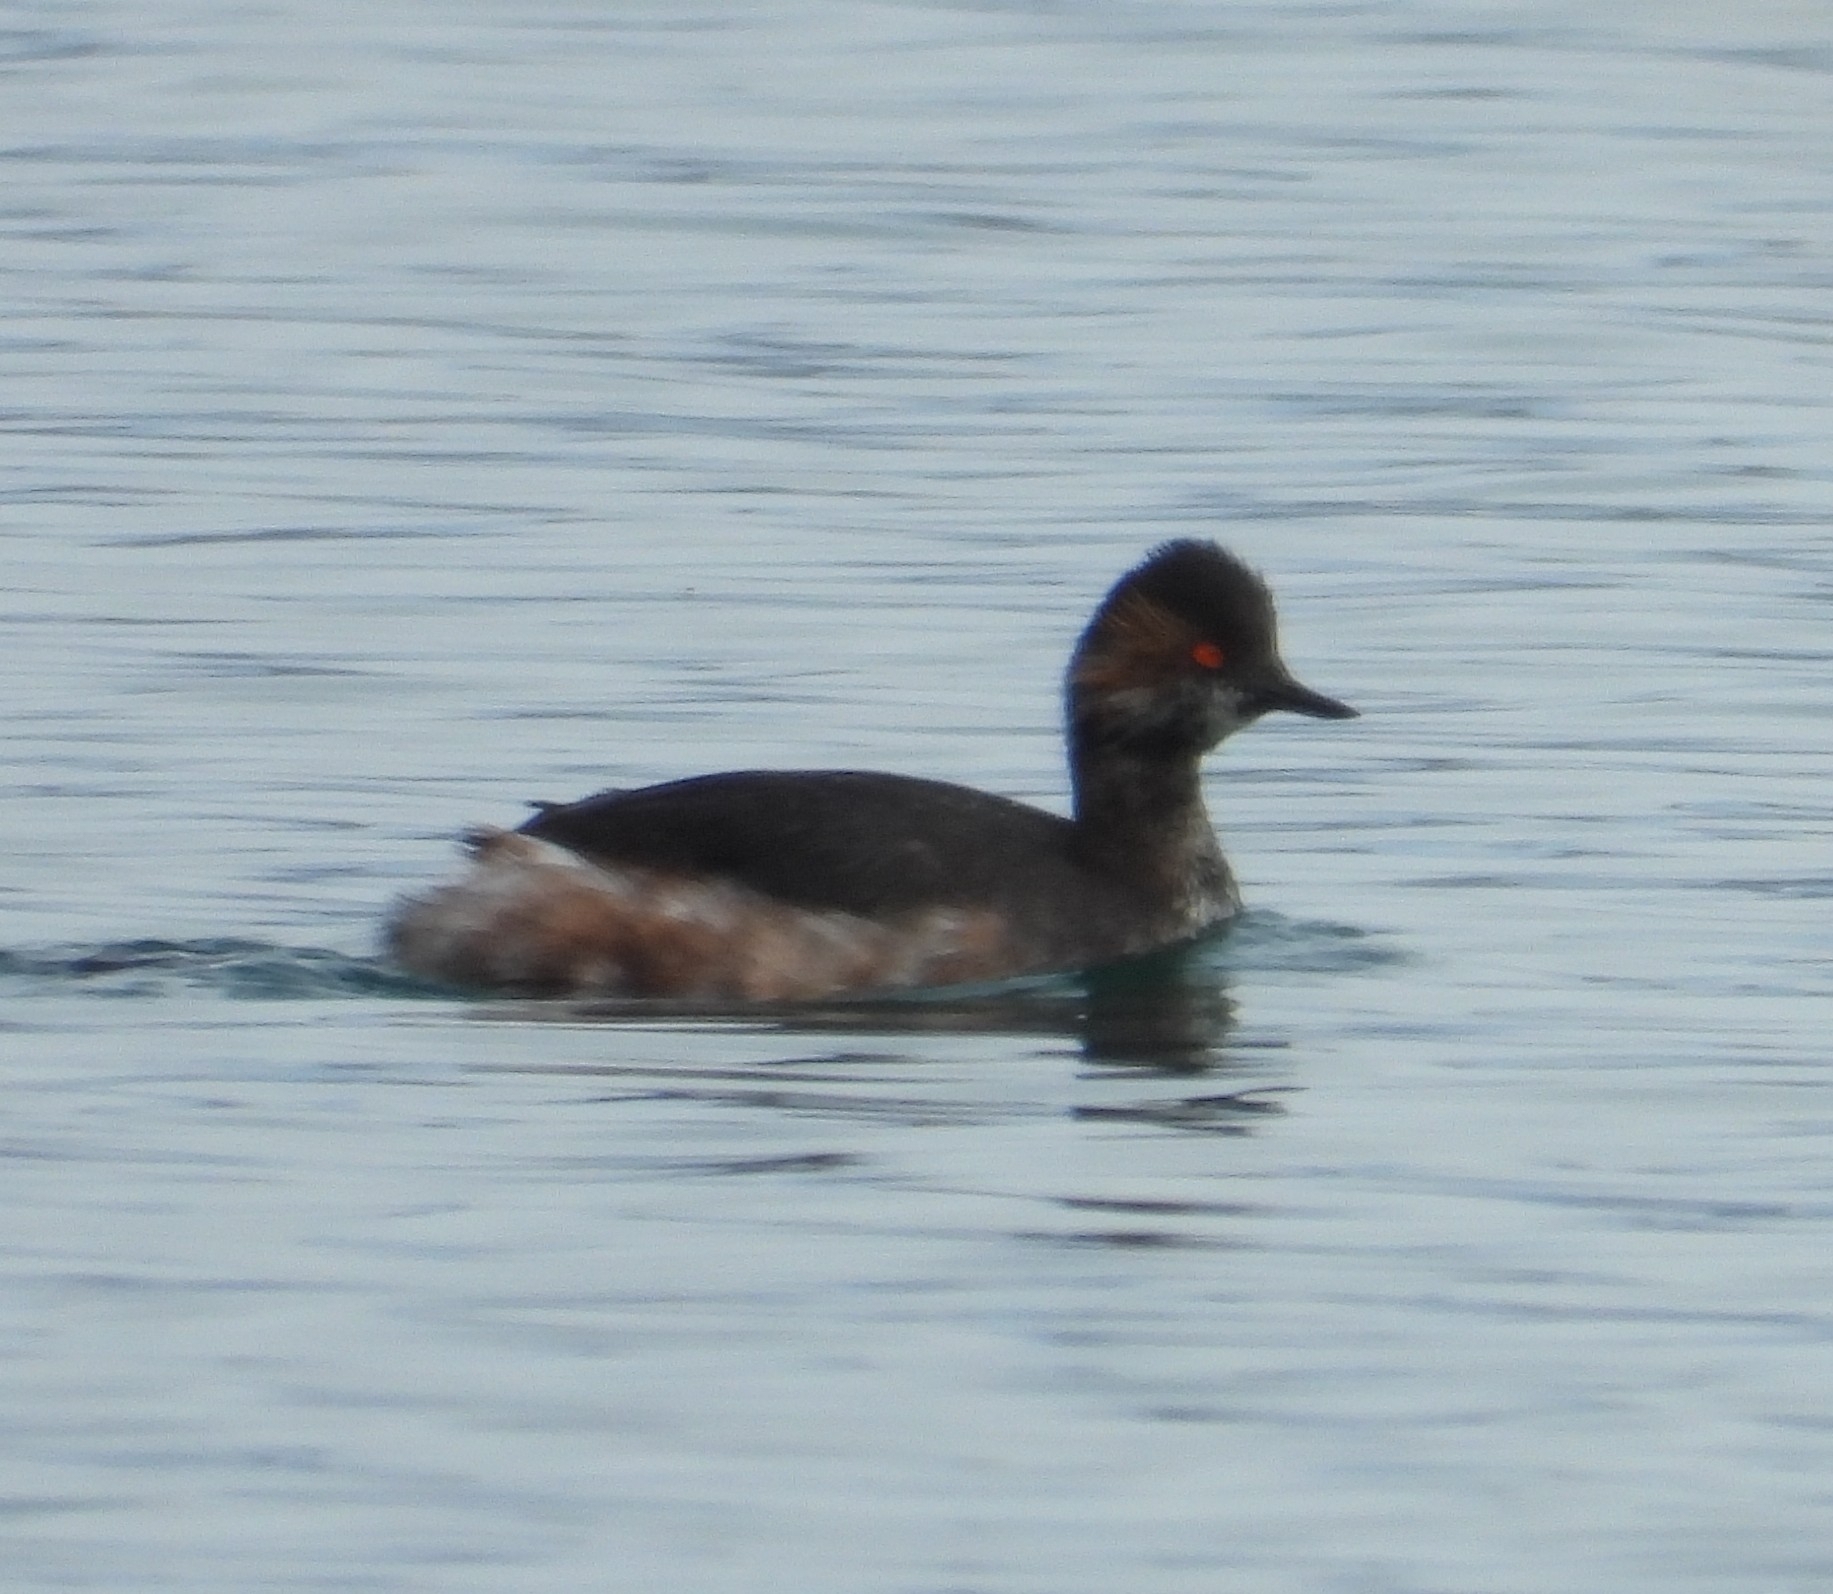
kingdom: Animalia
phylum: Chordata
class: Aves
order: Podicipediformes
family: Podicipedidae
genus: Podiceps
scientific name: Podiceps nigricollis
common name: Black-necked grebe
